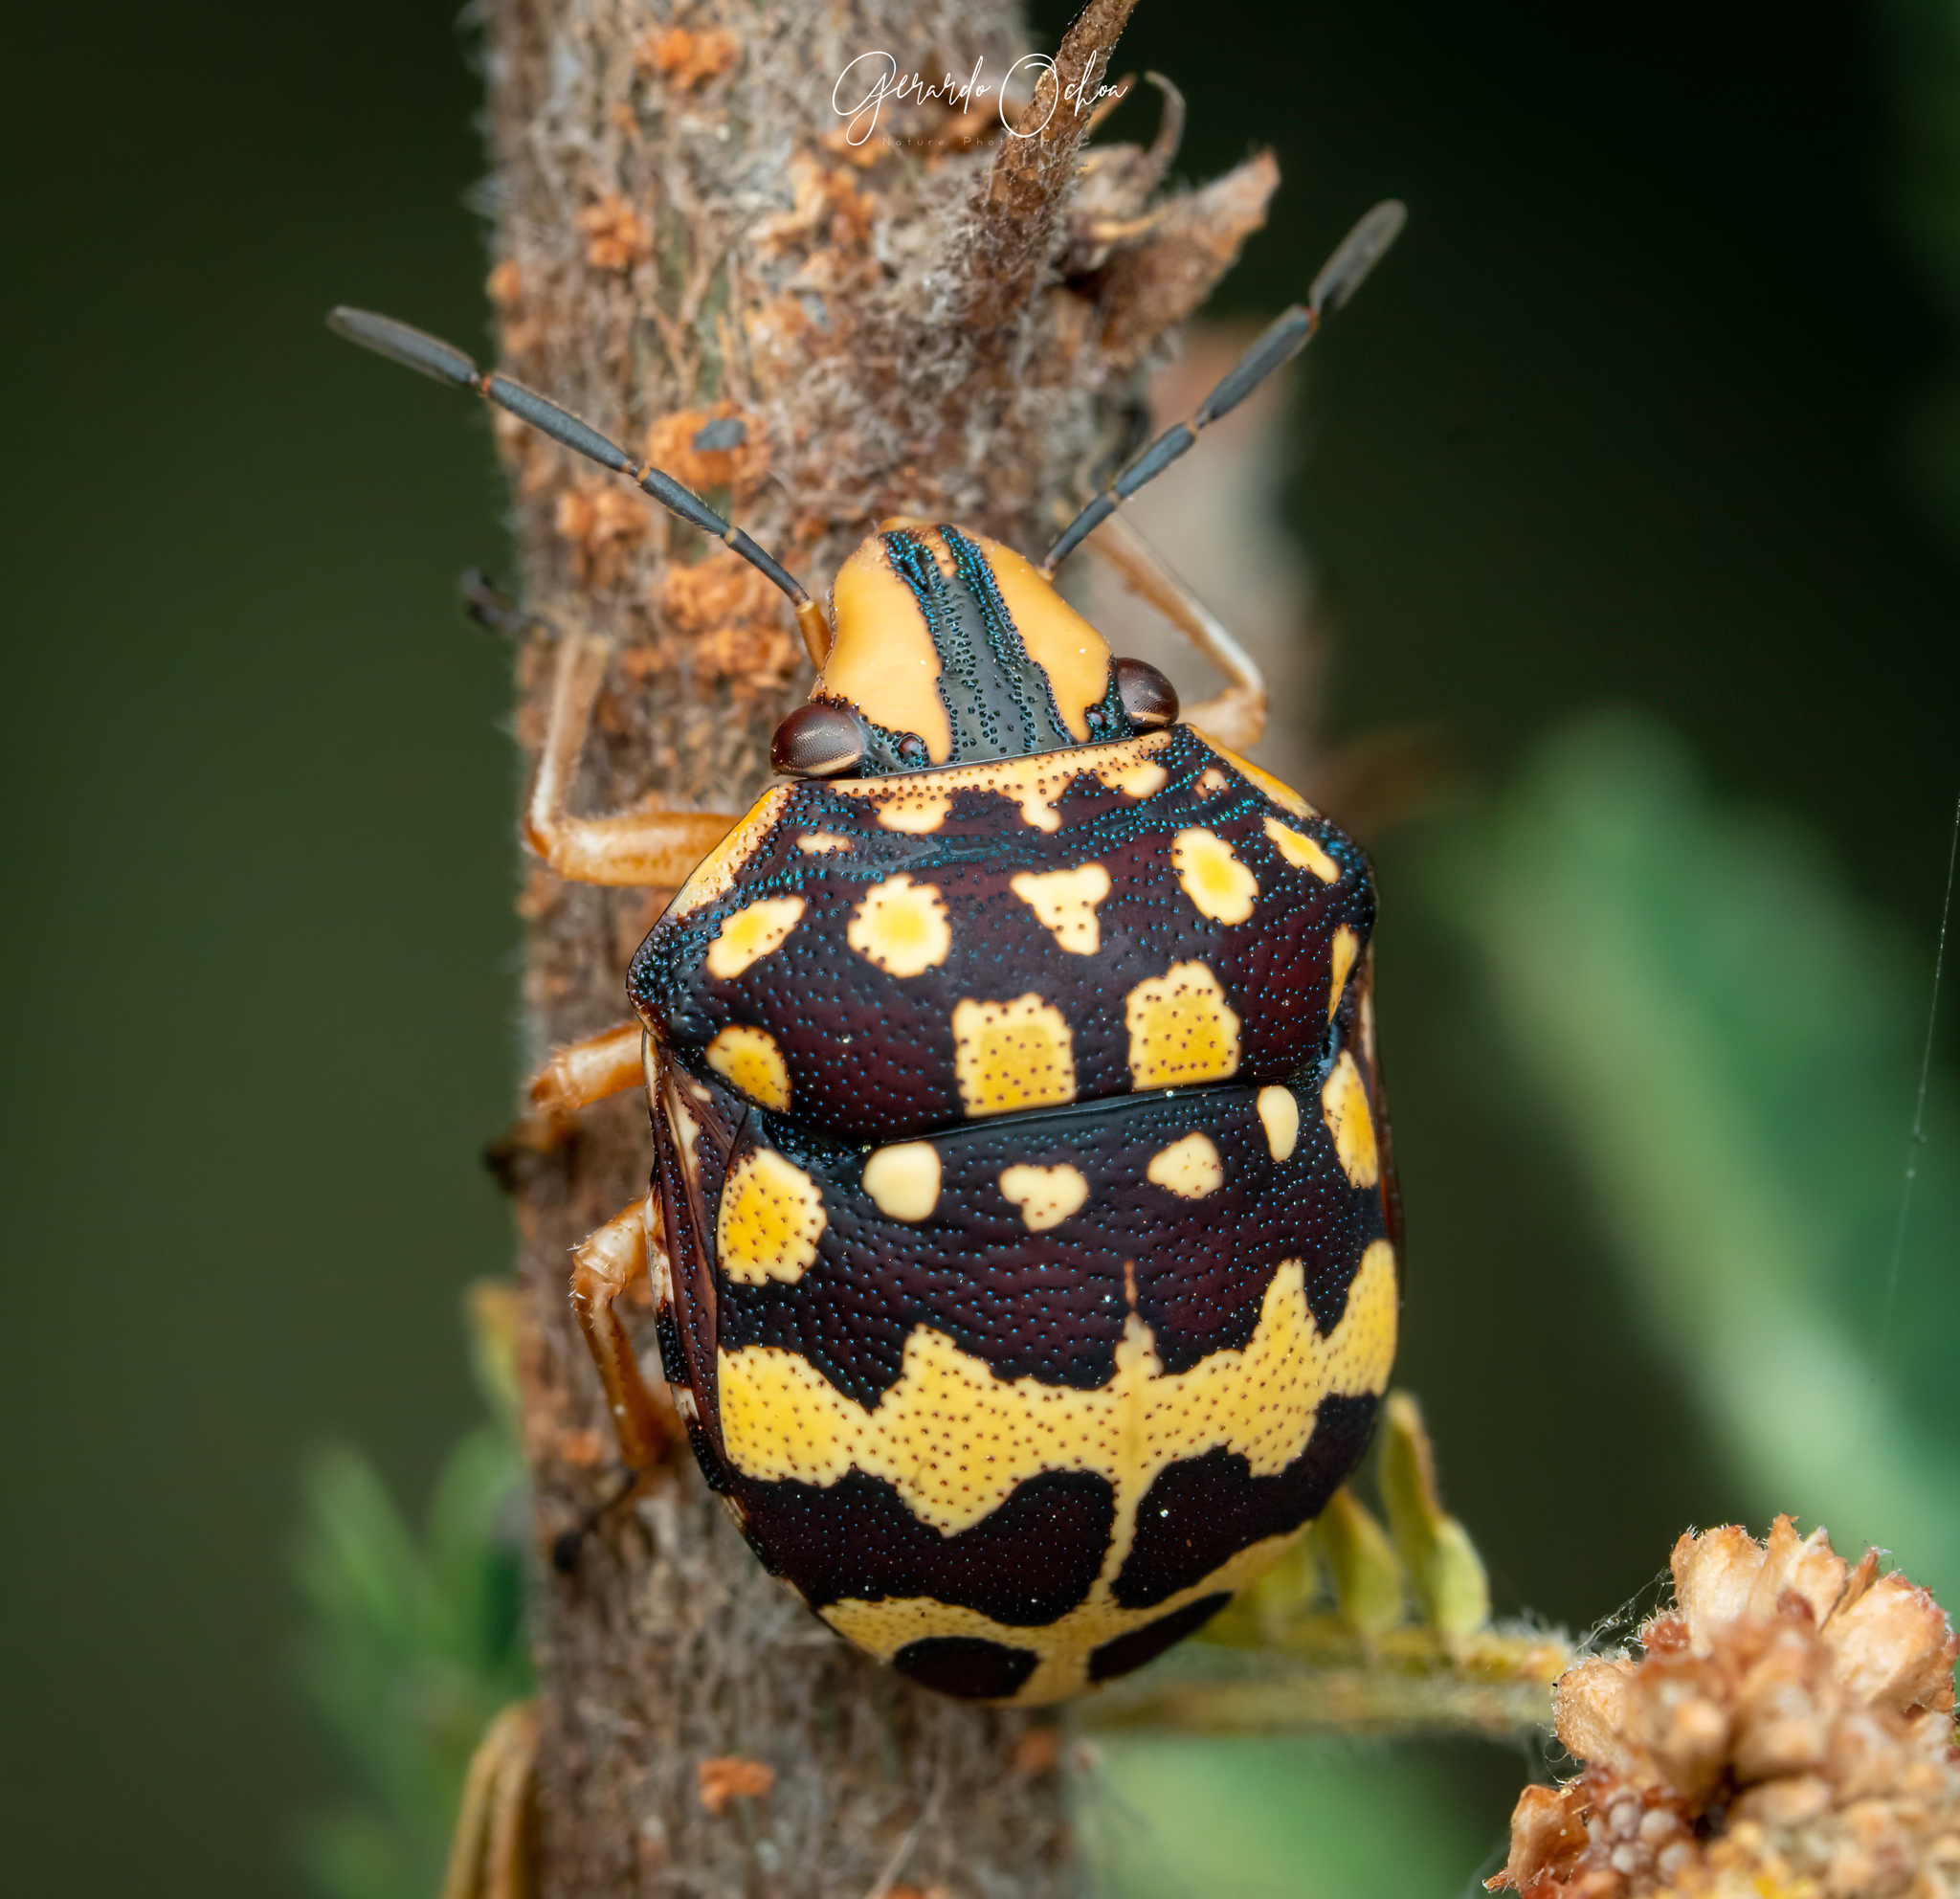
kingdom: Animalia
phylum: Arthropoda
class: Insecta
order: Hemiptera
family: Scutelleridae
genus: Orsilochides
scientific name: Orsilochides
